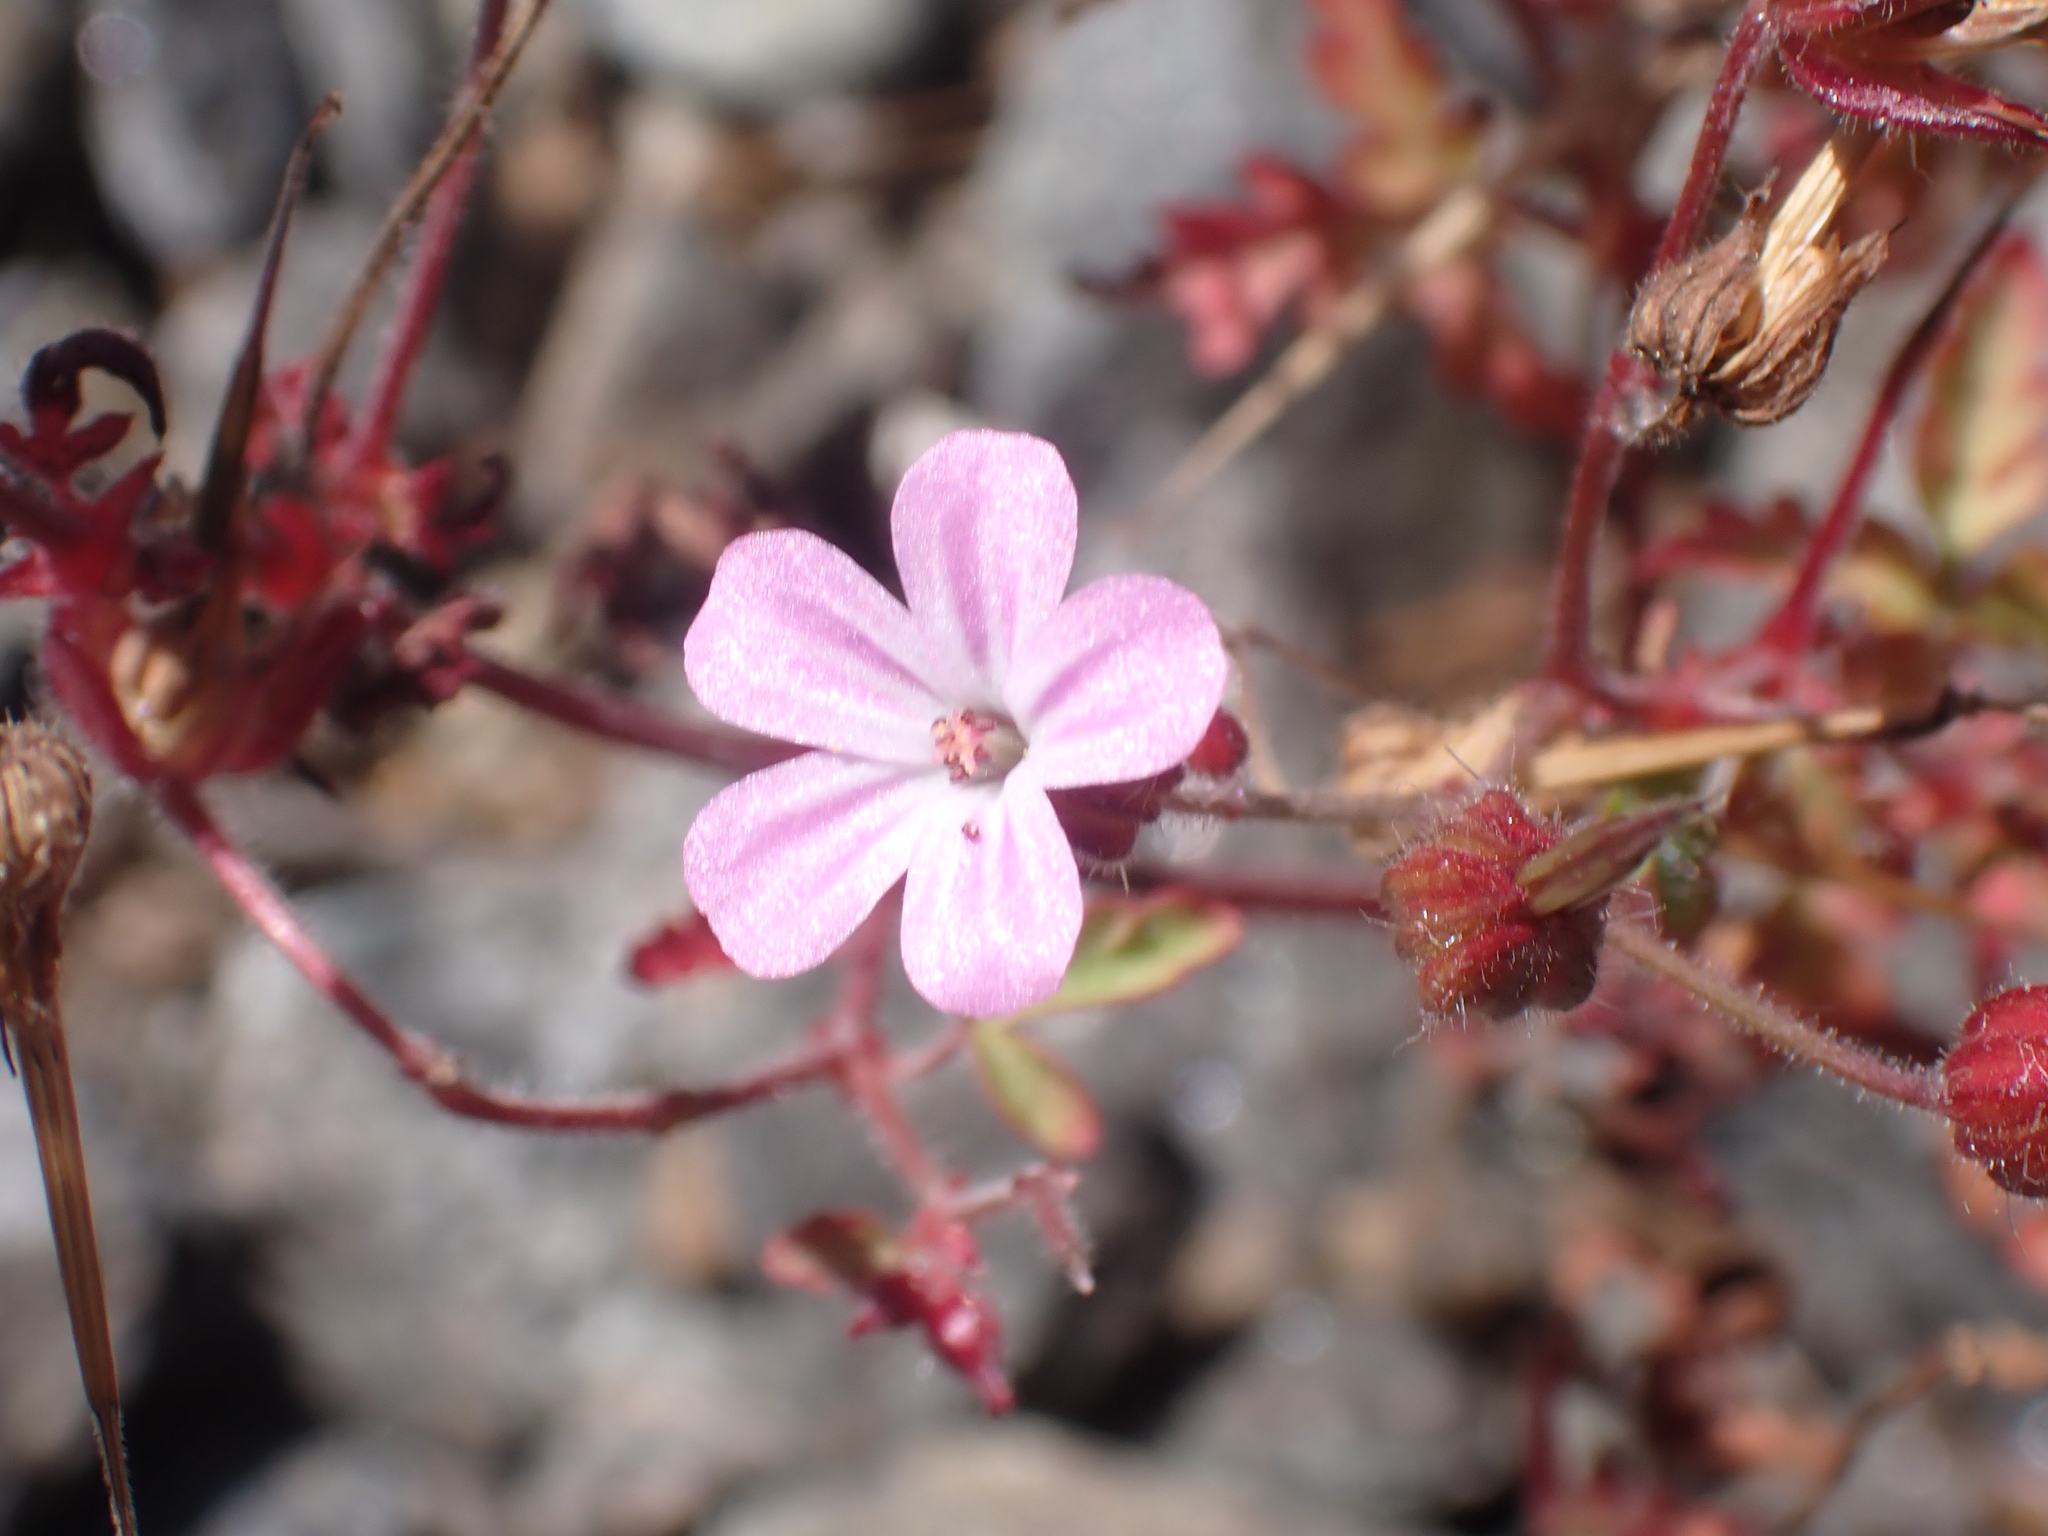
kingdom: Plantae
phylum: Tracheophyta
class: Magnoliopsida
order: Geraniales
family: Geraniaceae
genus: Geranium
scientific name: Geranium robertianum
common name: Herb-robert
